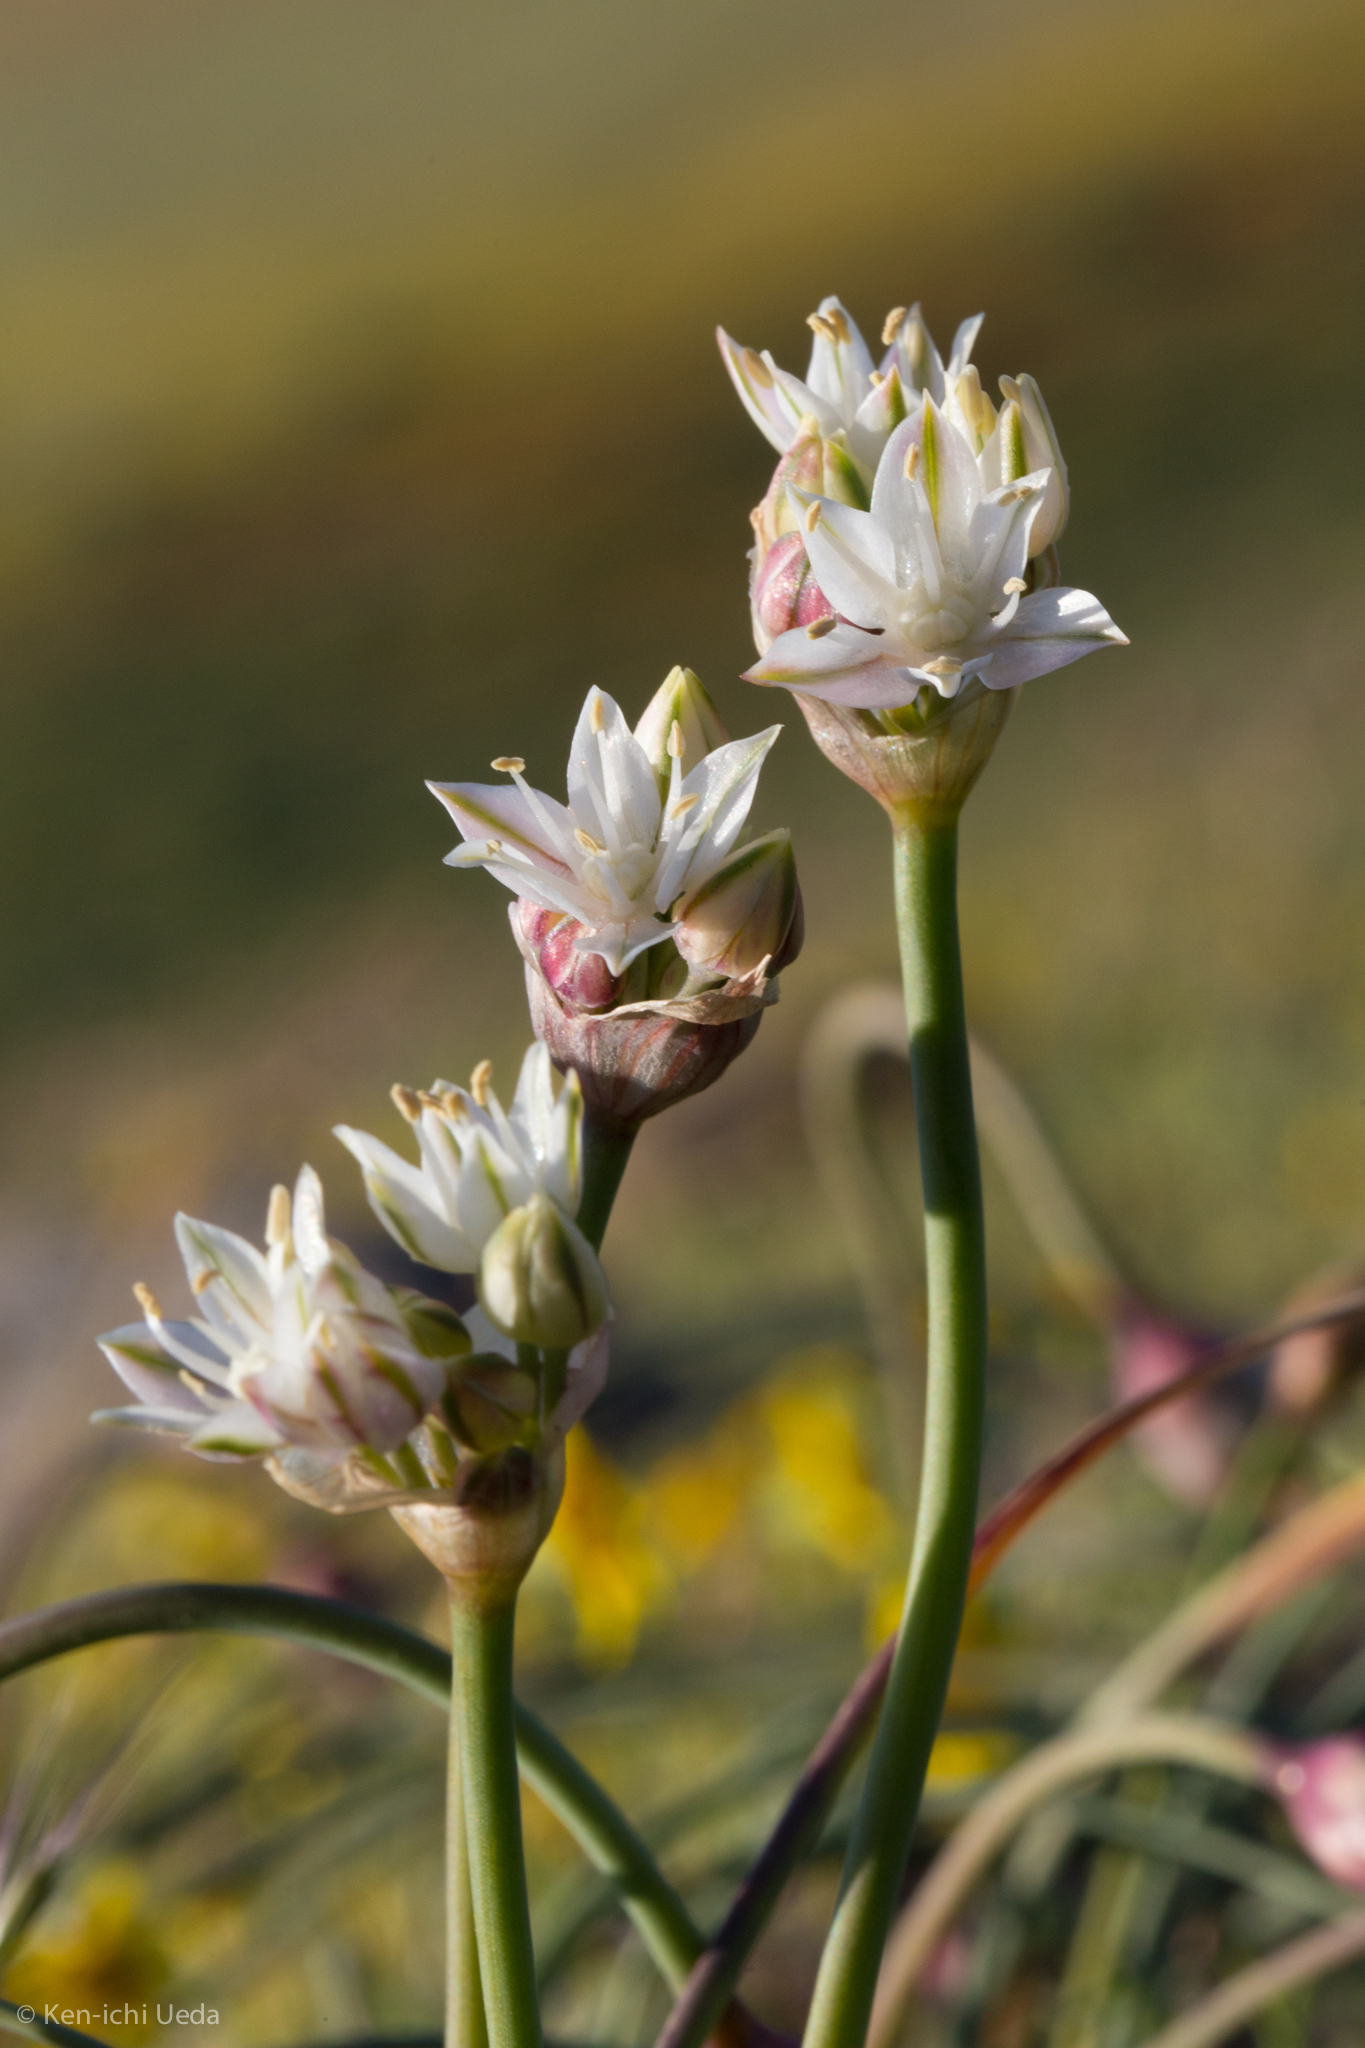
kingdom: Plantae
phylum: Tracheophyta
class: Liliopsida
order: Asparagales
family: Amaryllidaceae
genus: Allium
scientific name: Allium lacunosum
